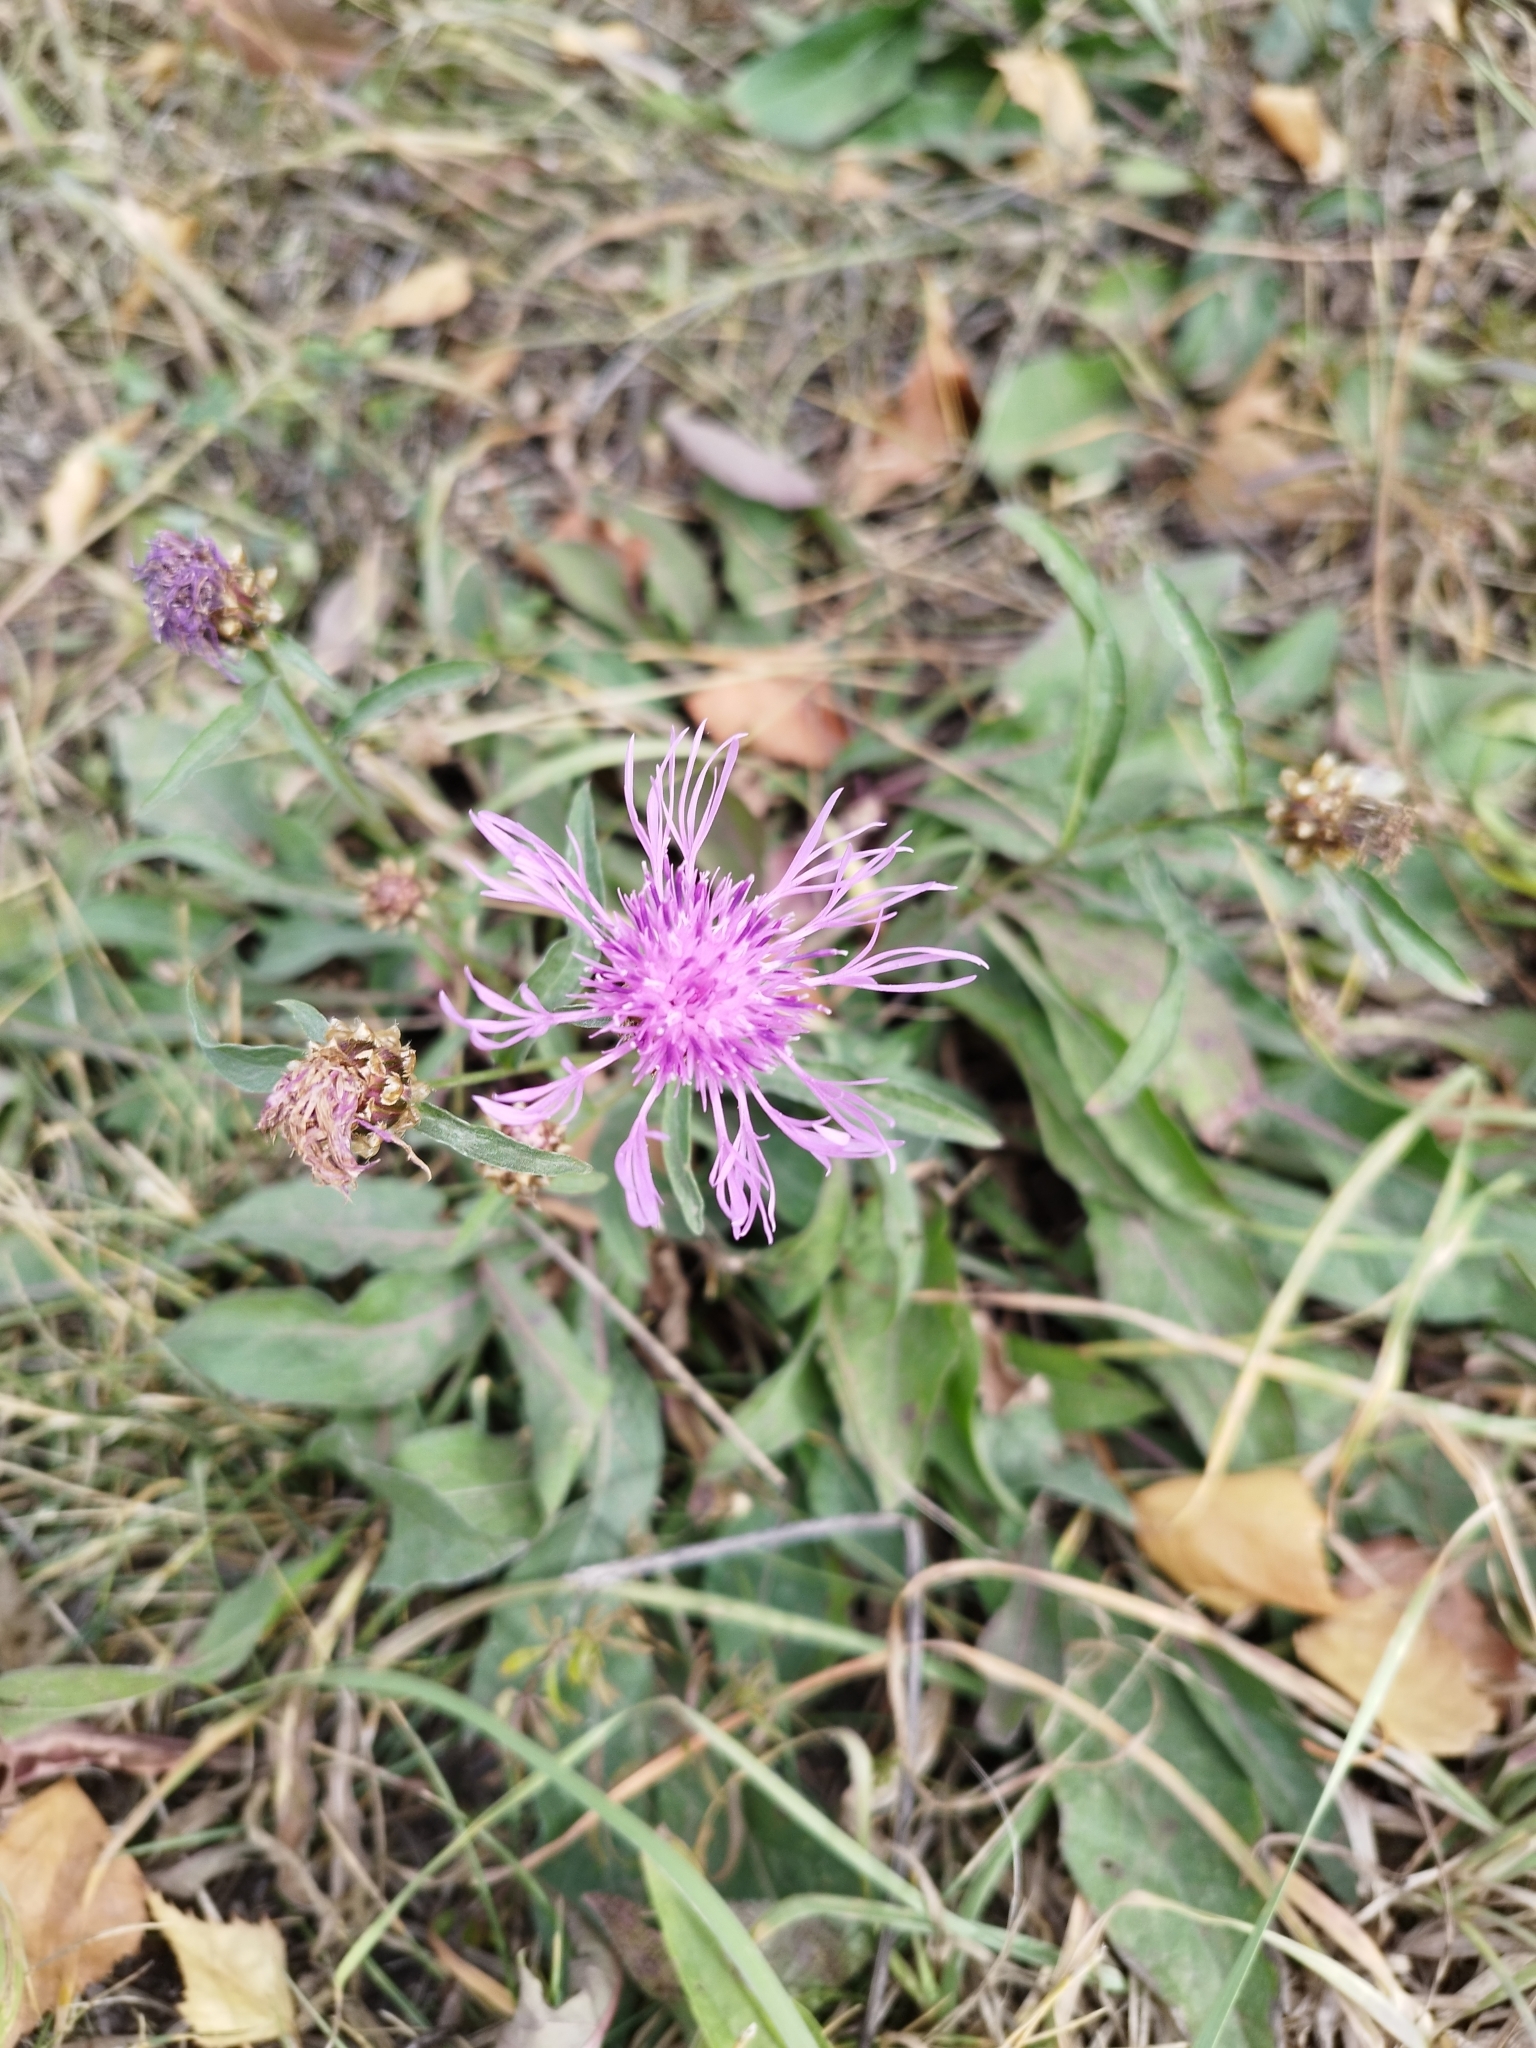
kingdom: Plantae
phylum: Tracheophyta
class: Magnoliopsida
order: Asterales
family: Asteraceae
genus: Centaurea
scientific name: Centaurea jacea
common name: Brown knapweed
